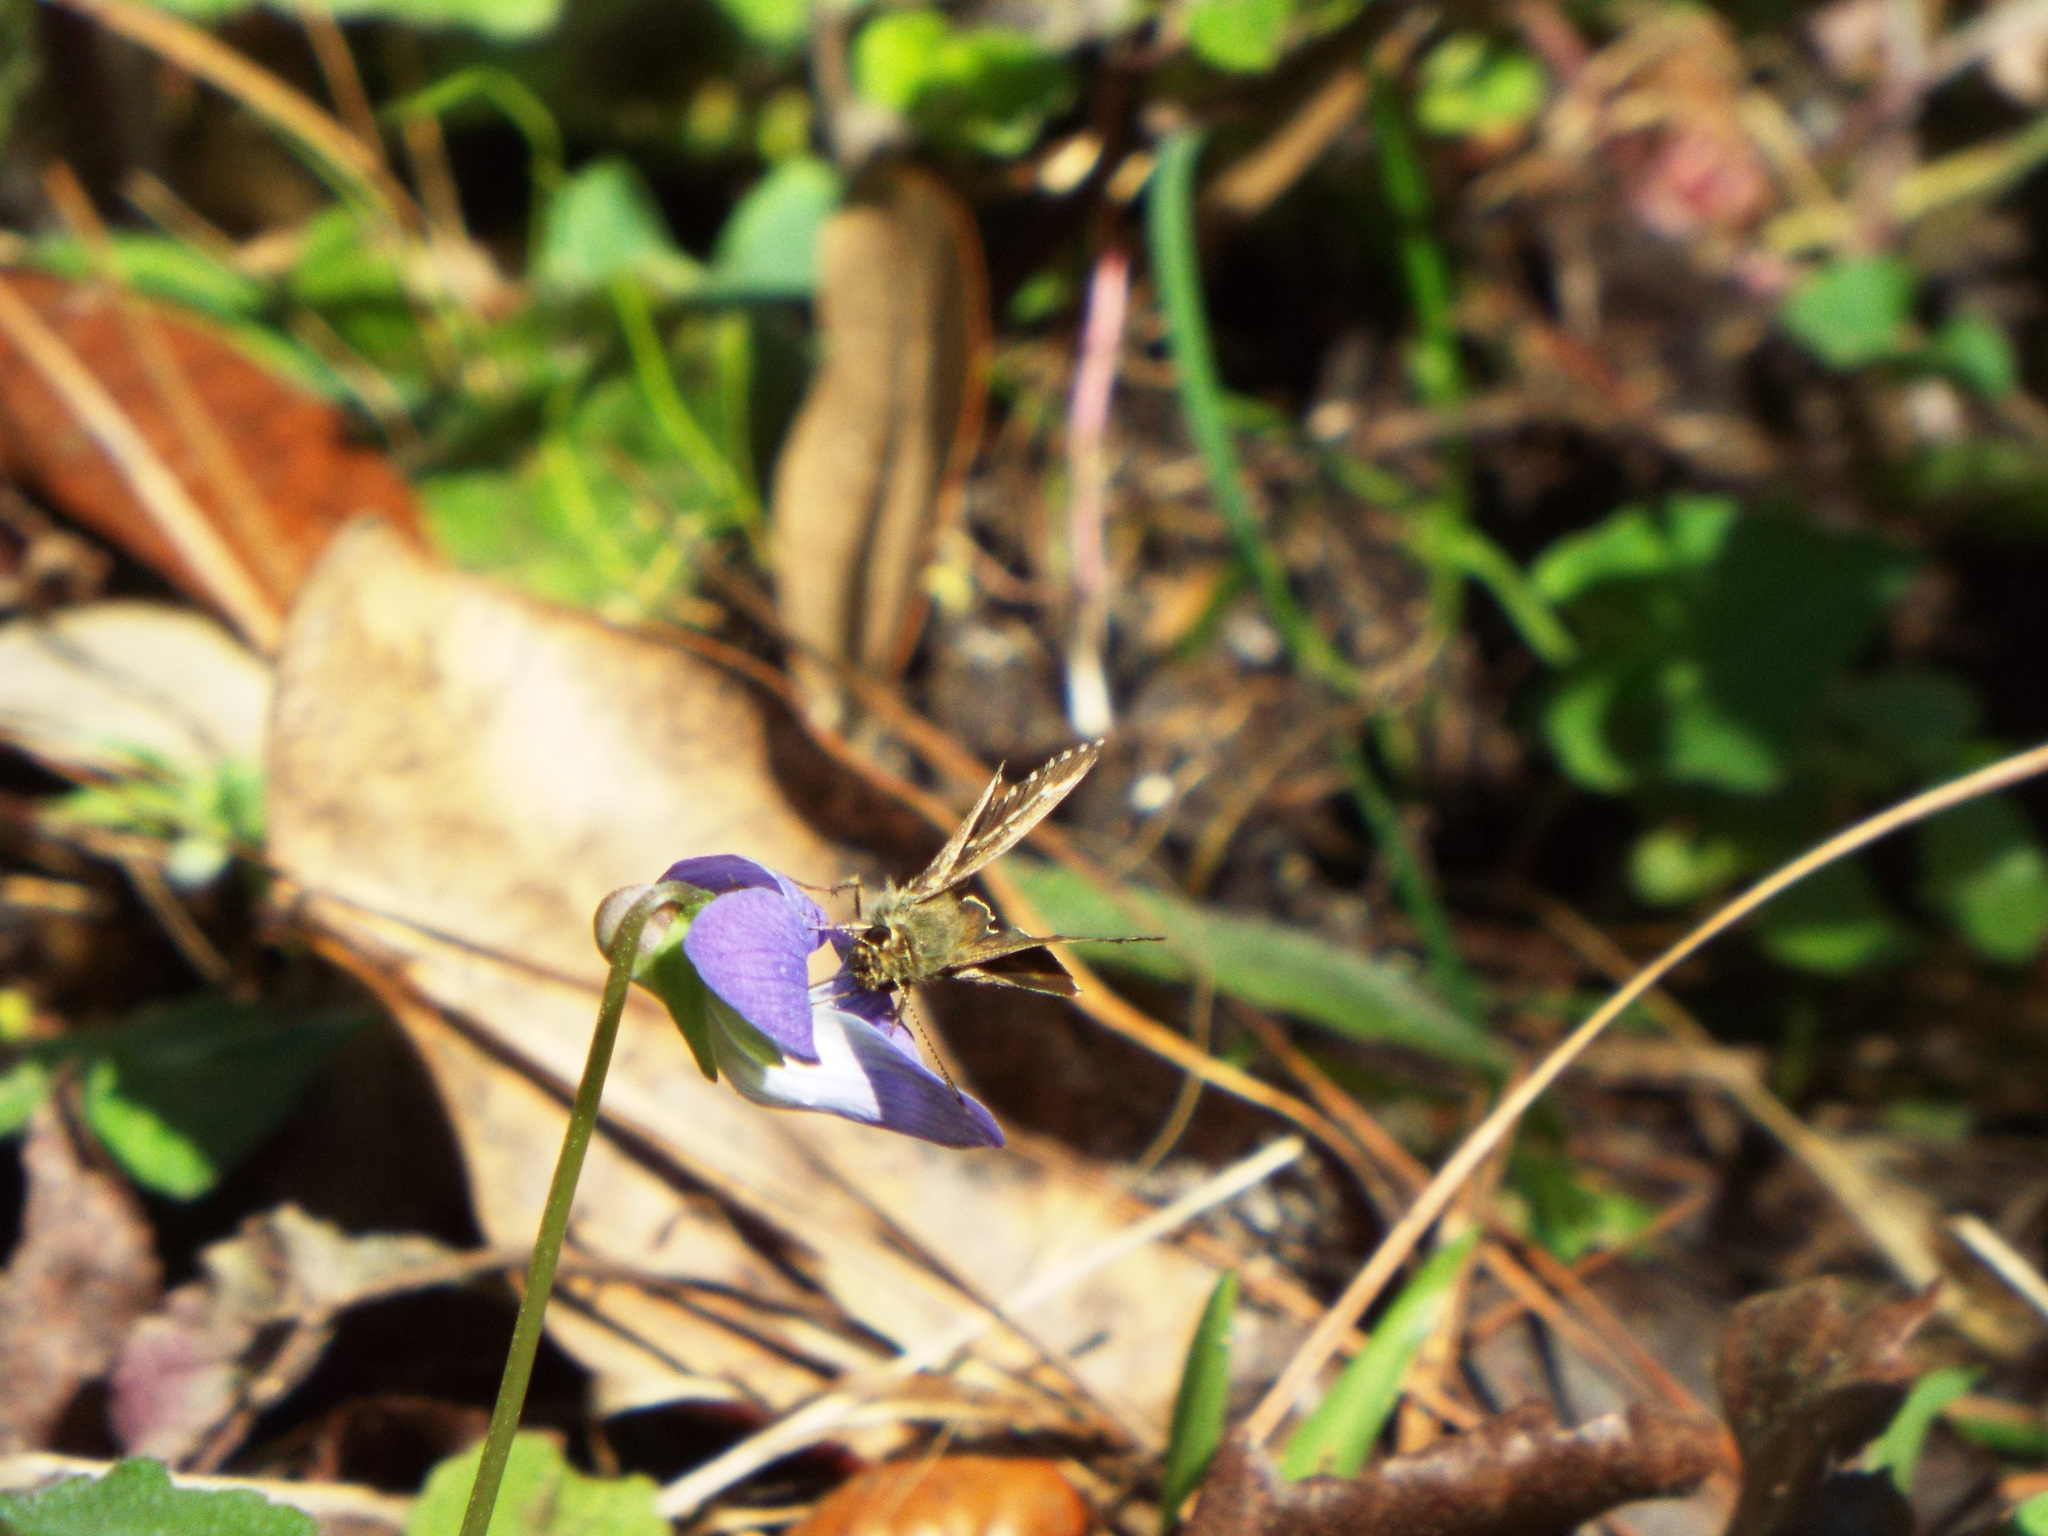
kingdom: Animalia
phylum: Arthropoda
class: Insecta
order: Lepidoptera
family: Hesperiidae
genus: Mastor
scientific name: Mastor aesculapius
